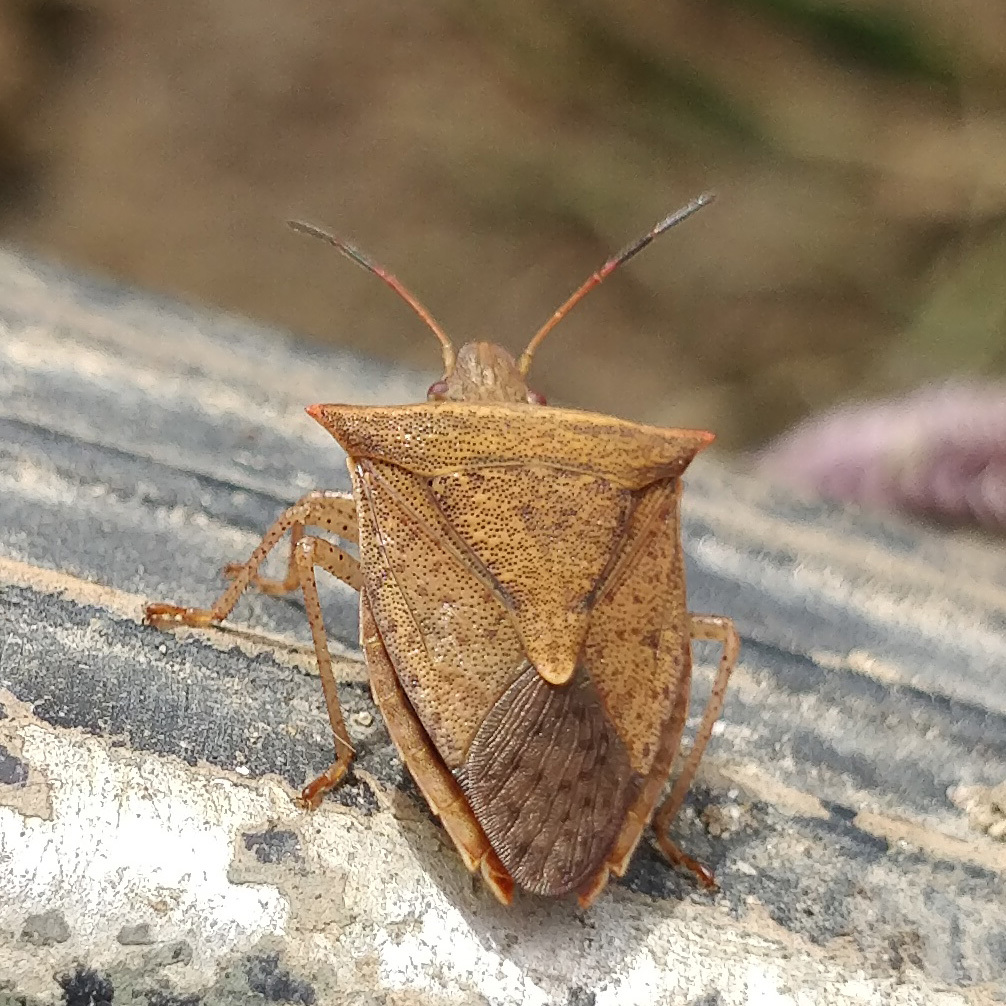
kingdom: Animalia
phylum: Arthropoda
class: Insecta
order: Hemiptera
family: Pentatomidae
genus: Euschistus
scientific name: Euschistus ictericus
